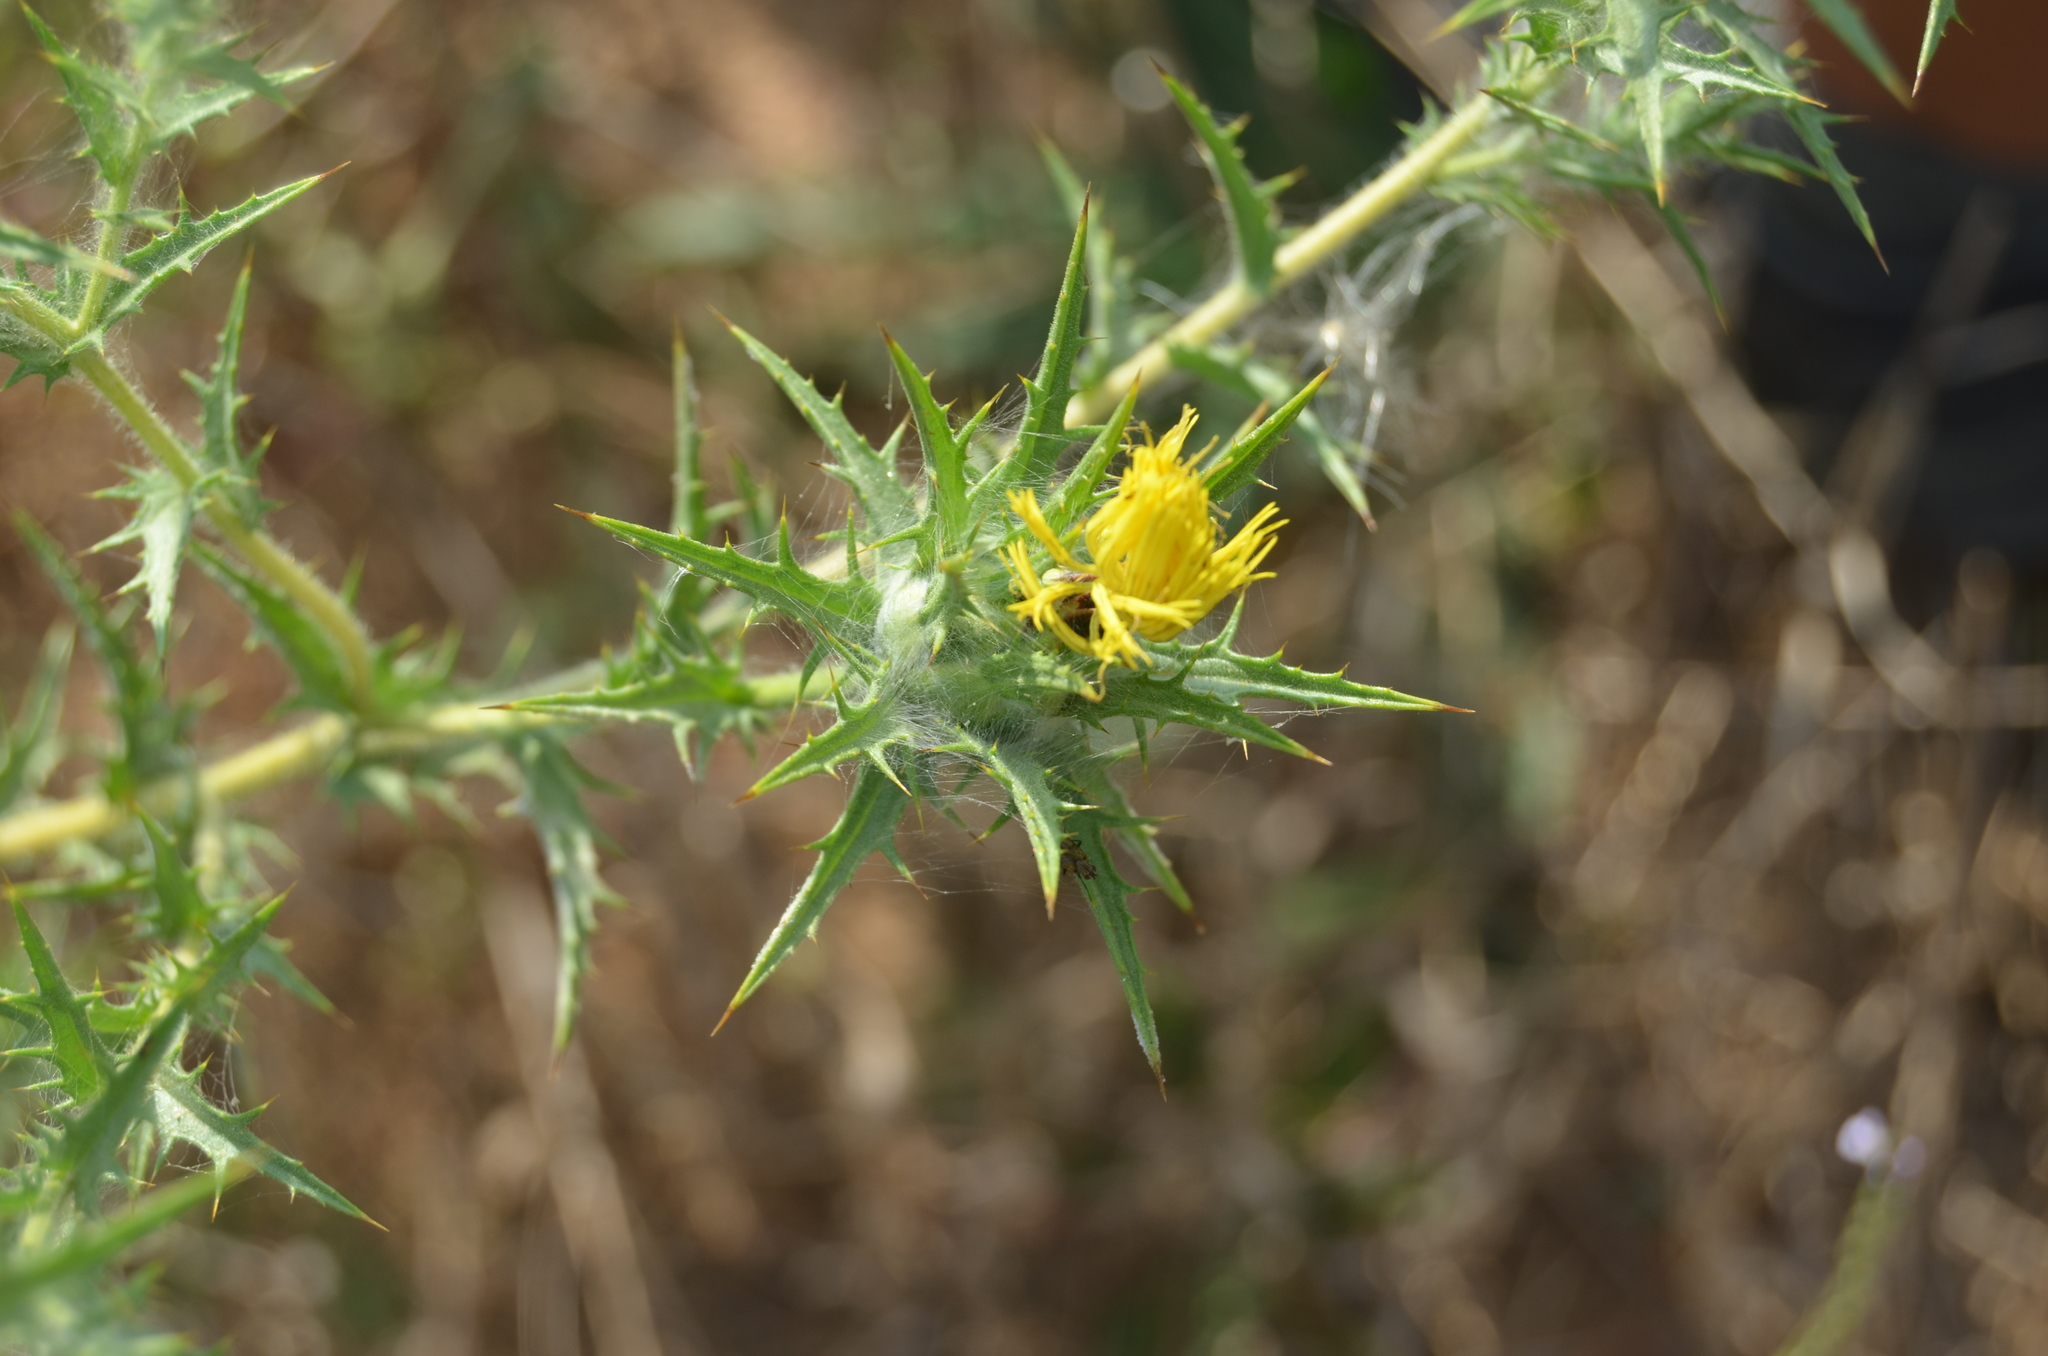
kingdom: Plantae
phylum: Tracheophyta
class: Magnoliopsida
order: Asterales
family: Asteraceae
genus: Carthamus
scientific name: Carthamus lanatus
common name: Downy safflower
